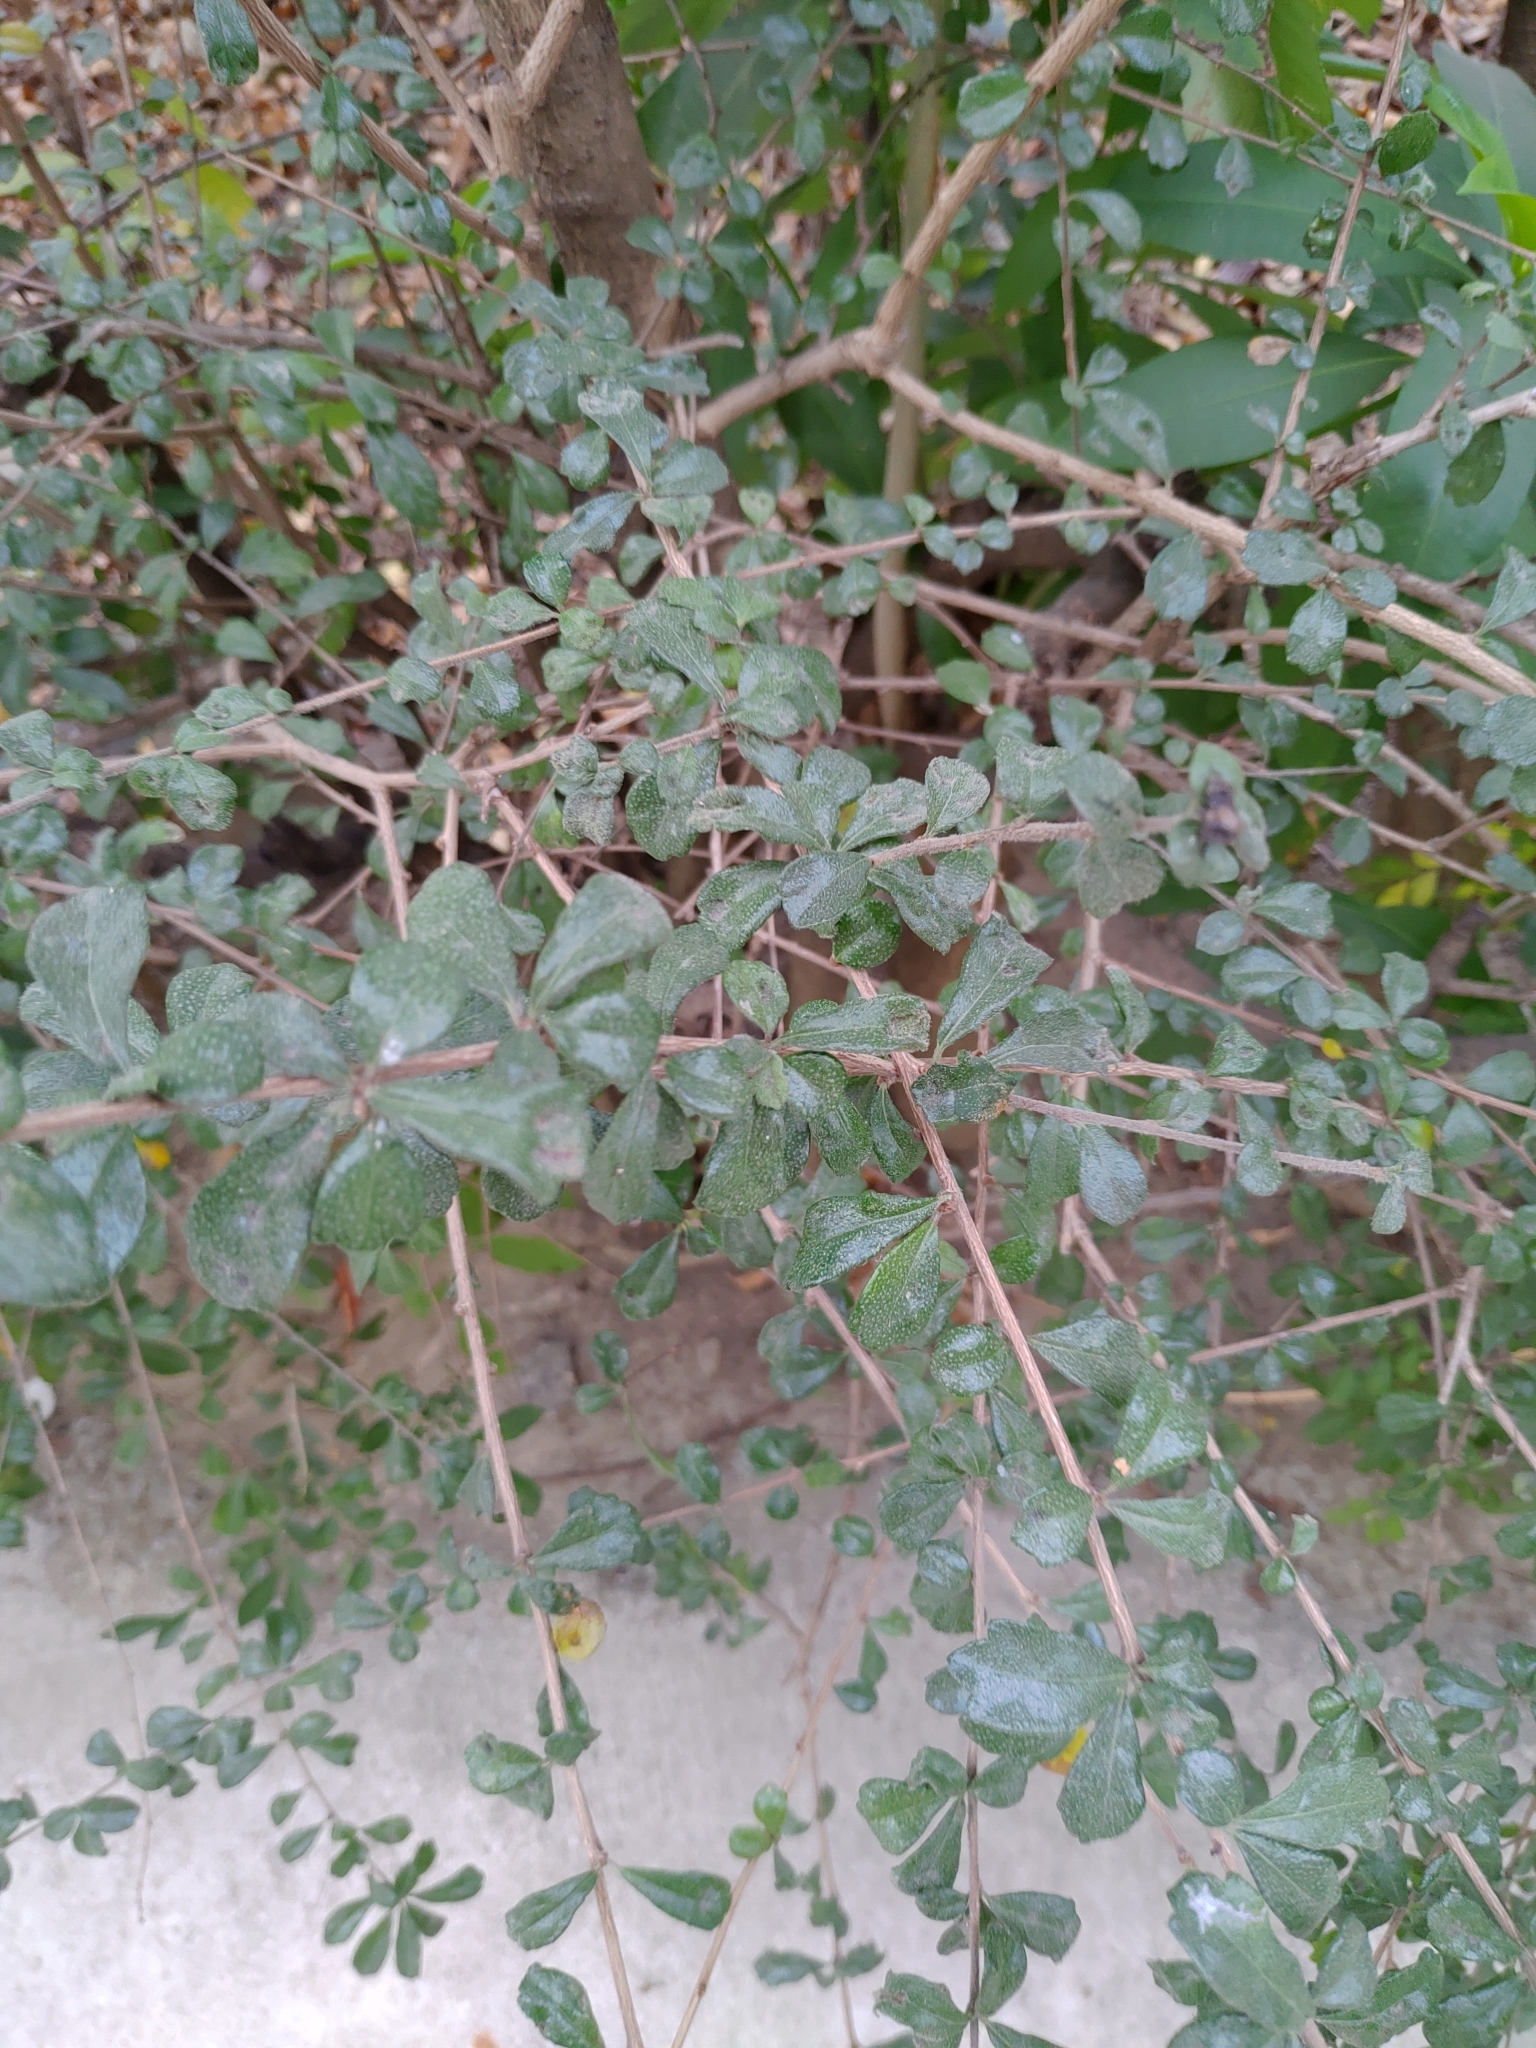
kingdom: Plantae
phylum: Tracheophyta
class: Magnoliopsida
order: Boraginales
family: Ehretiaceae
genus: Ehretia
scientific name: Ehretia microphylla
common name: Fukien-tea
